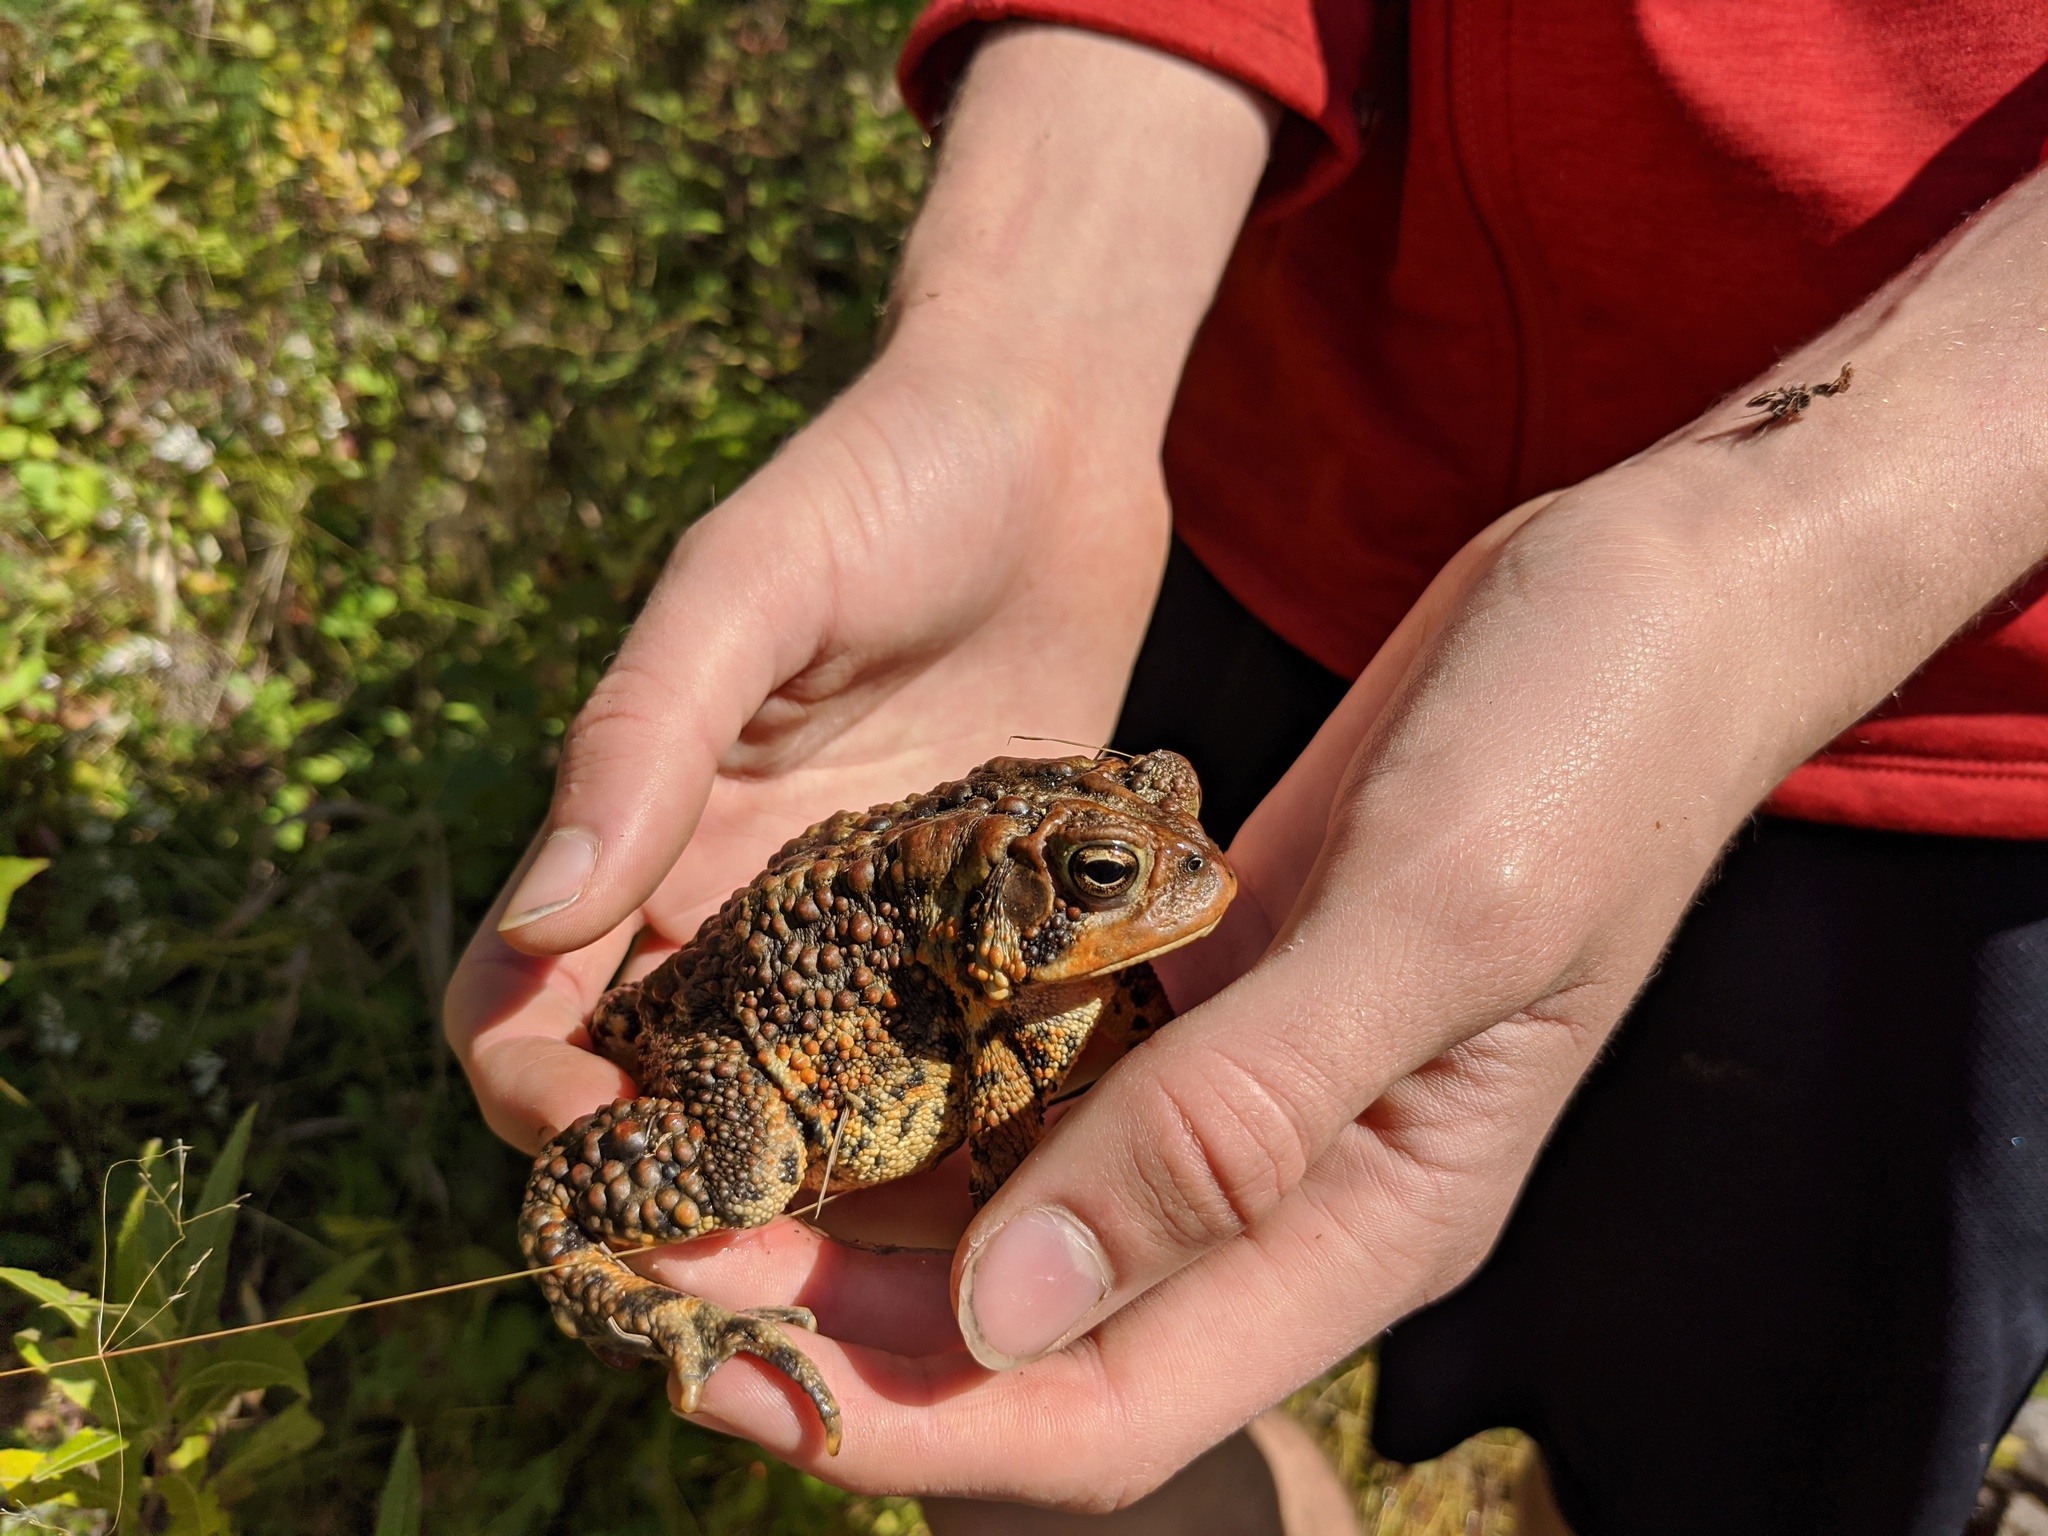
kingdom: Animalia
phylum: Chordata
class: Amphibia
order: Anura
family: Bufonidae
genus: Anaxyrus
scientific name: Anaxyrus americanus
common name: American toad
